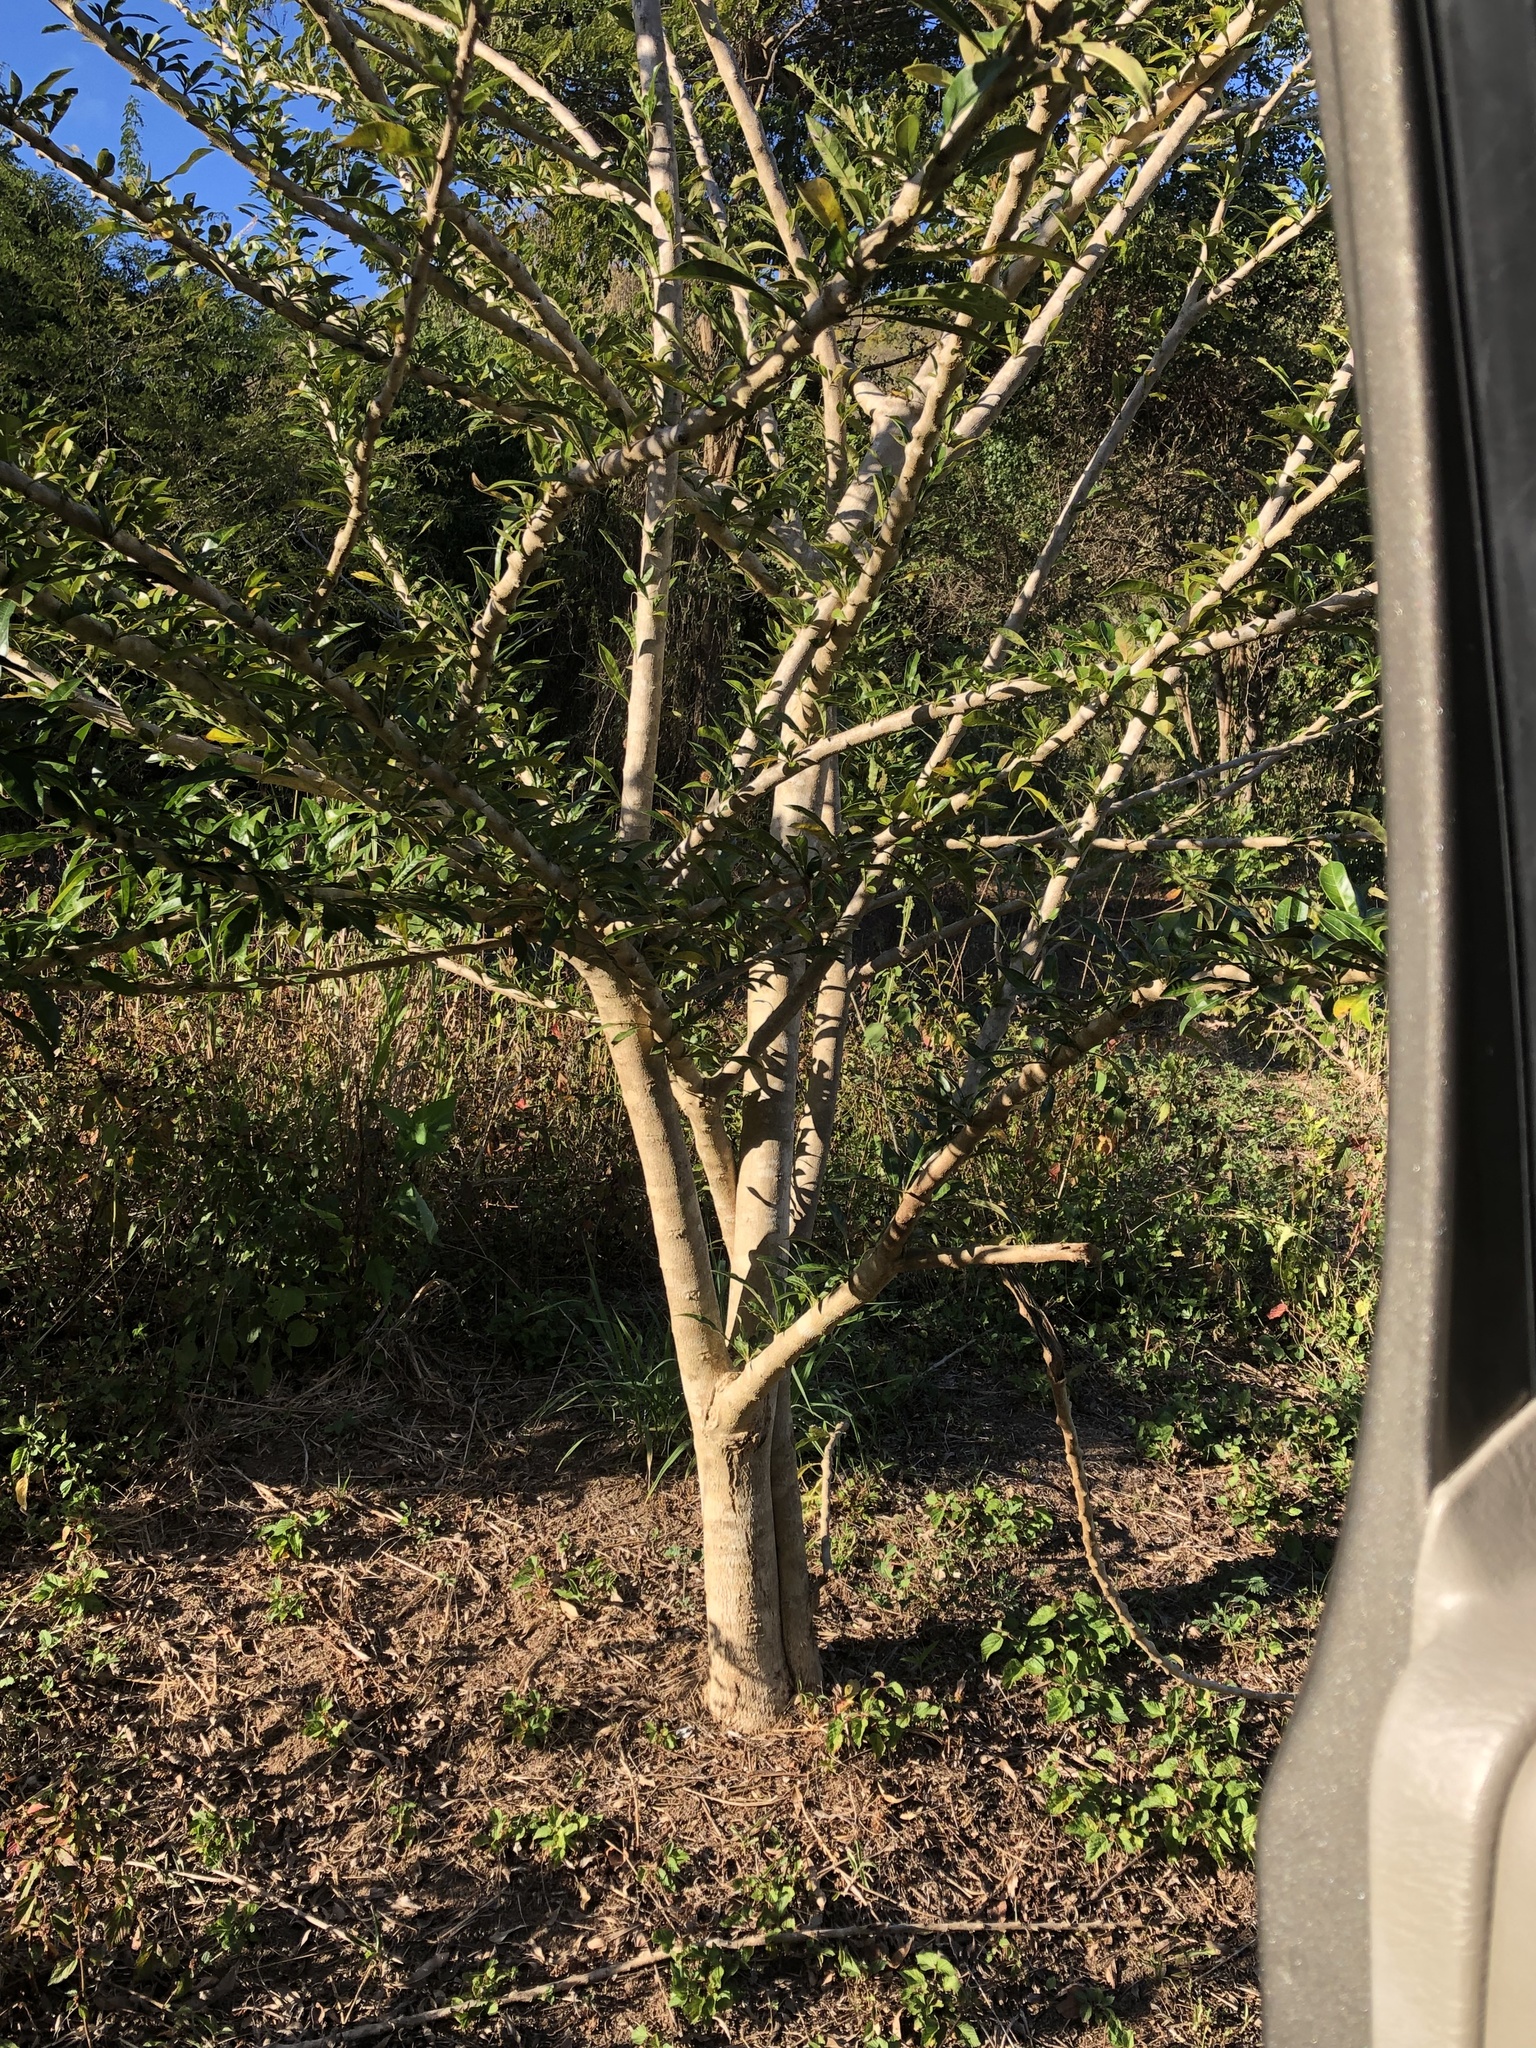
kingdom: Plantae
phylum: Tracheophyta
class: Magnoliopsida
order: Lamiales
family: Bignoniaceae
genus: Crescentia
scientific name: Crescentia cujete
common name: Calabash
